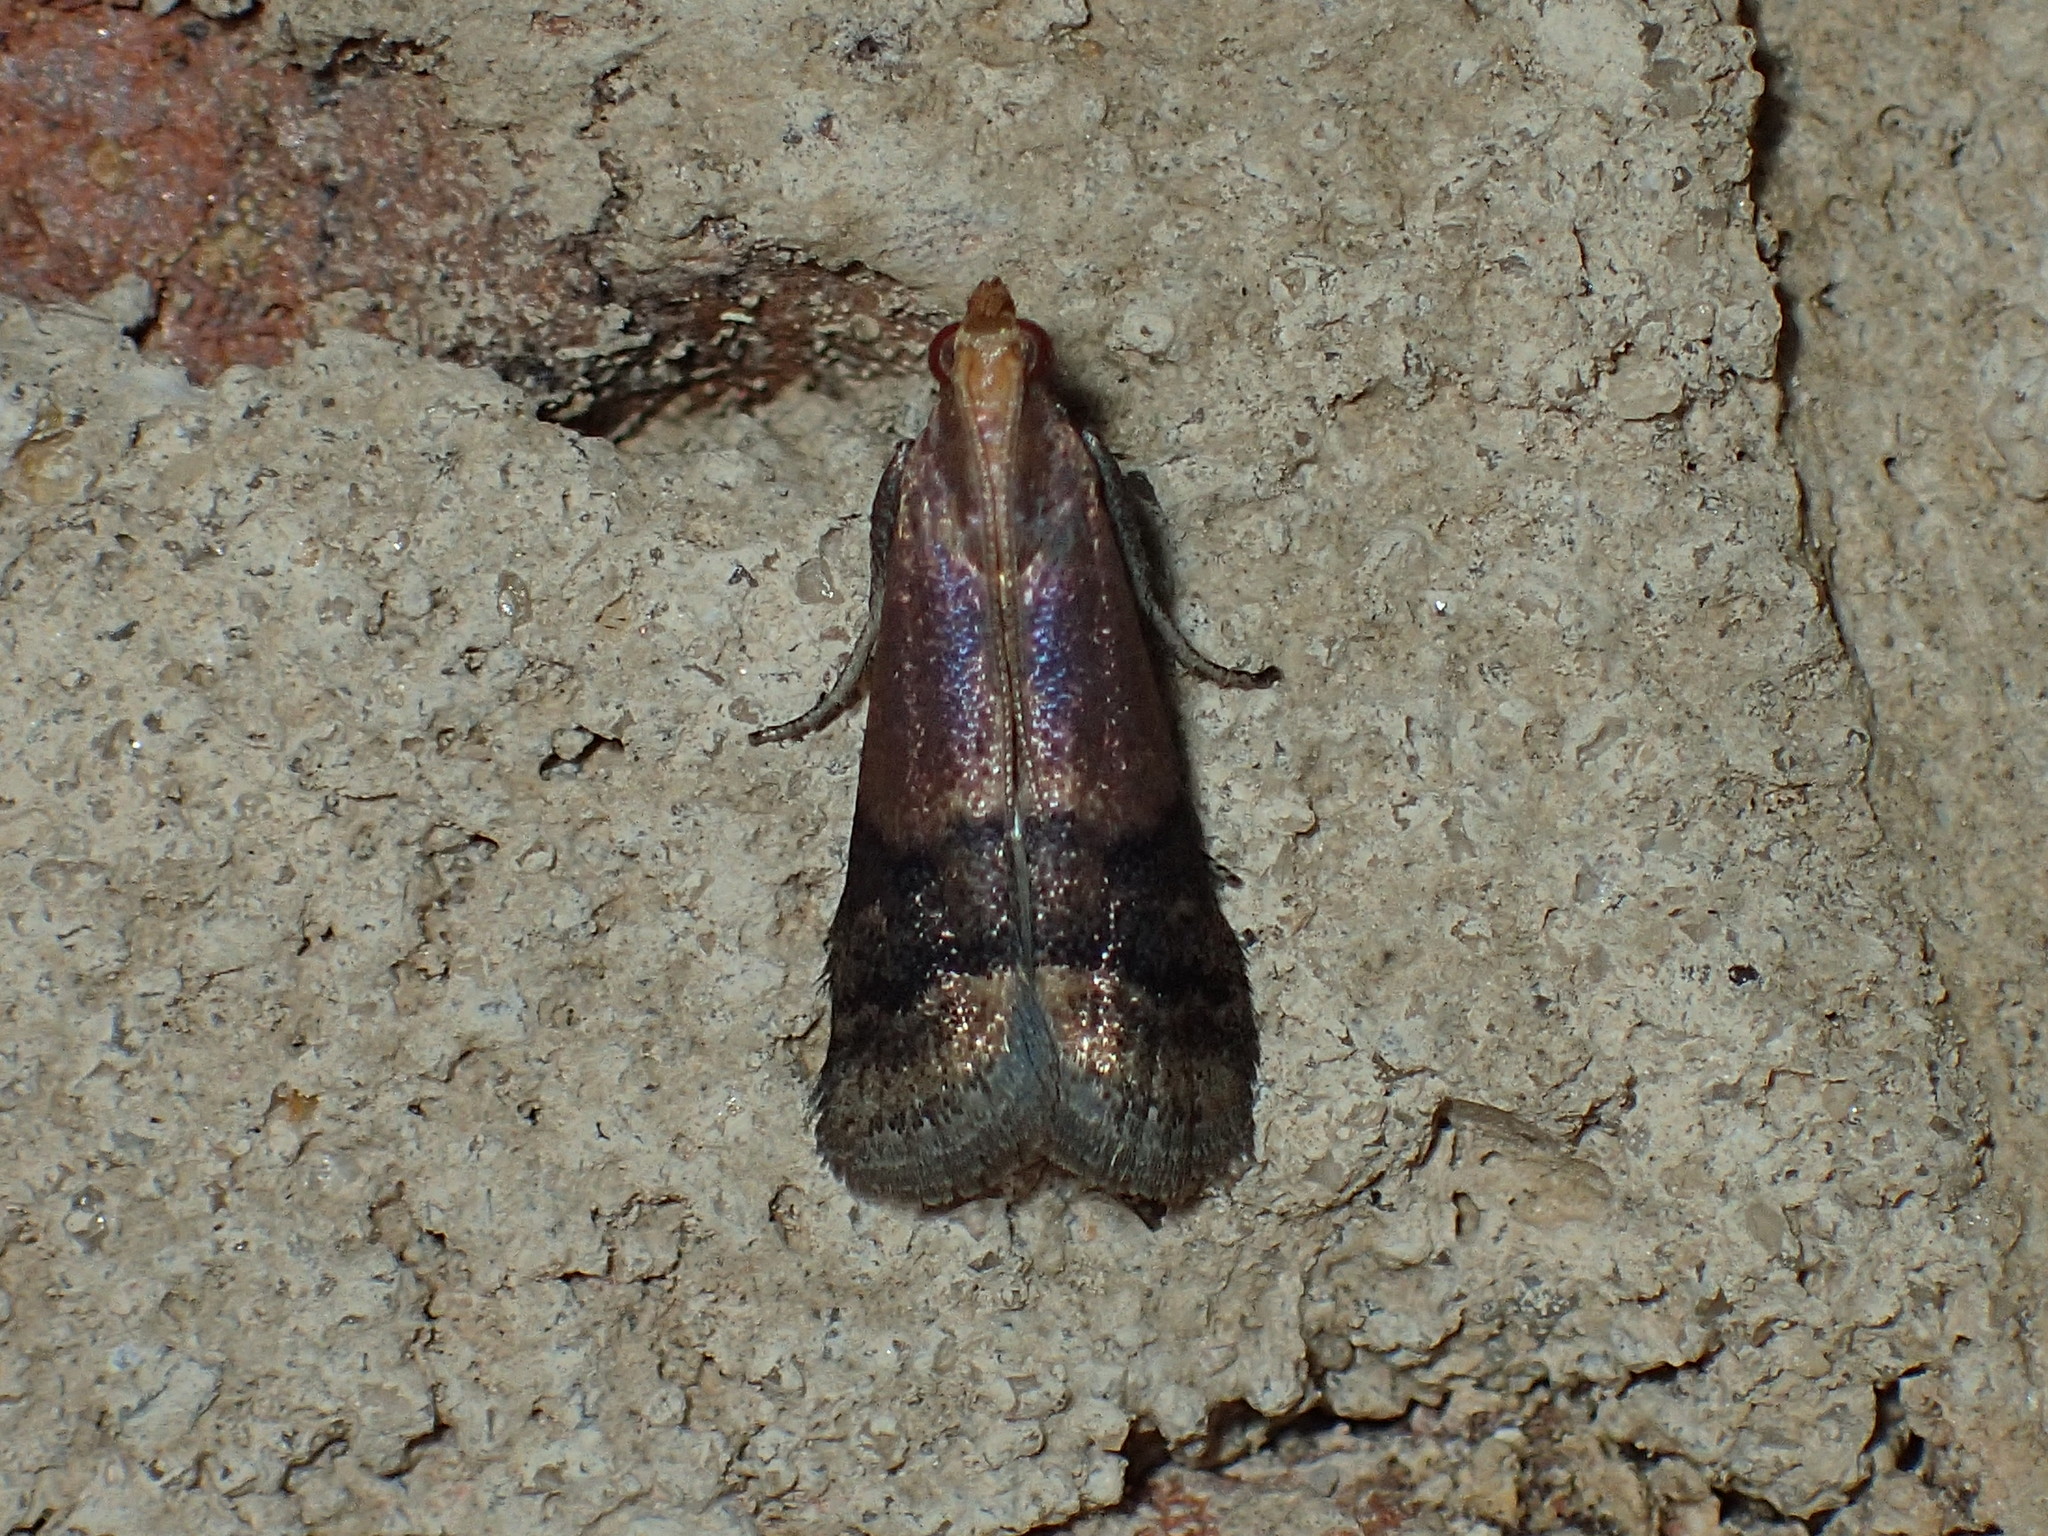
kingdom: Animalia
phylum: Arthropoda
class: Insecta
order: Lepidoptera
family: Pyralidae
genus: Eulogia
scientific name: Eulogia ochrifrontella
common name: Broad-banded eulogia moth
